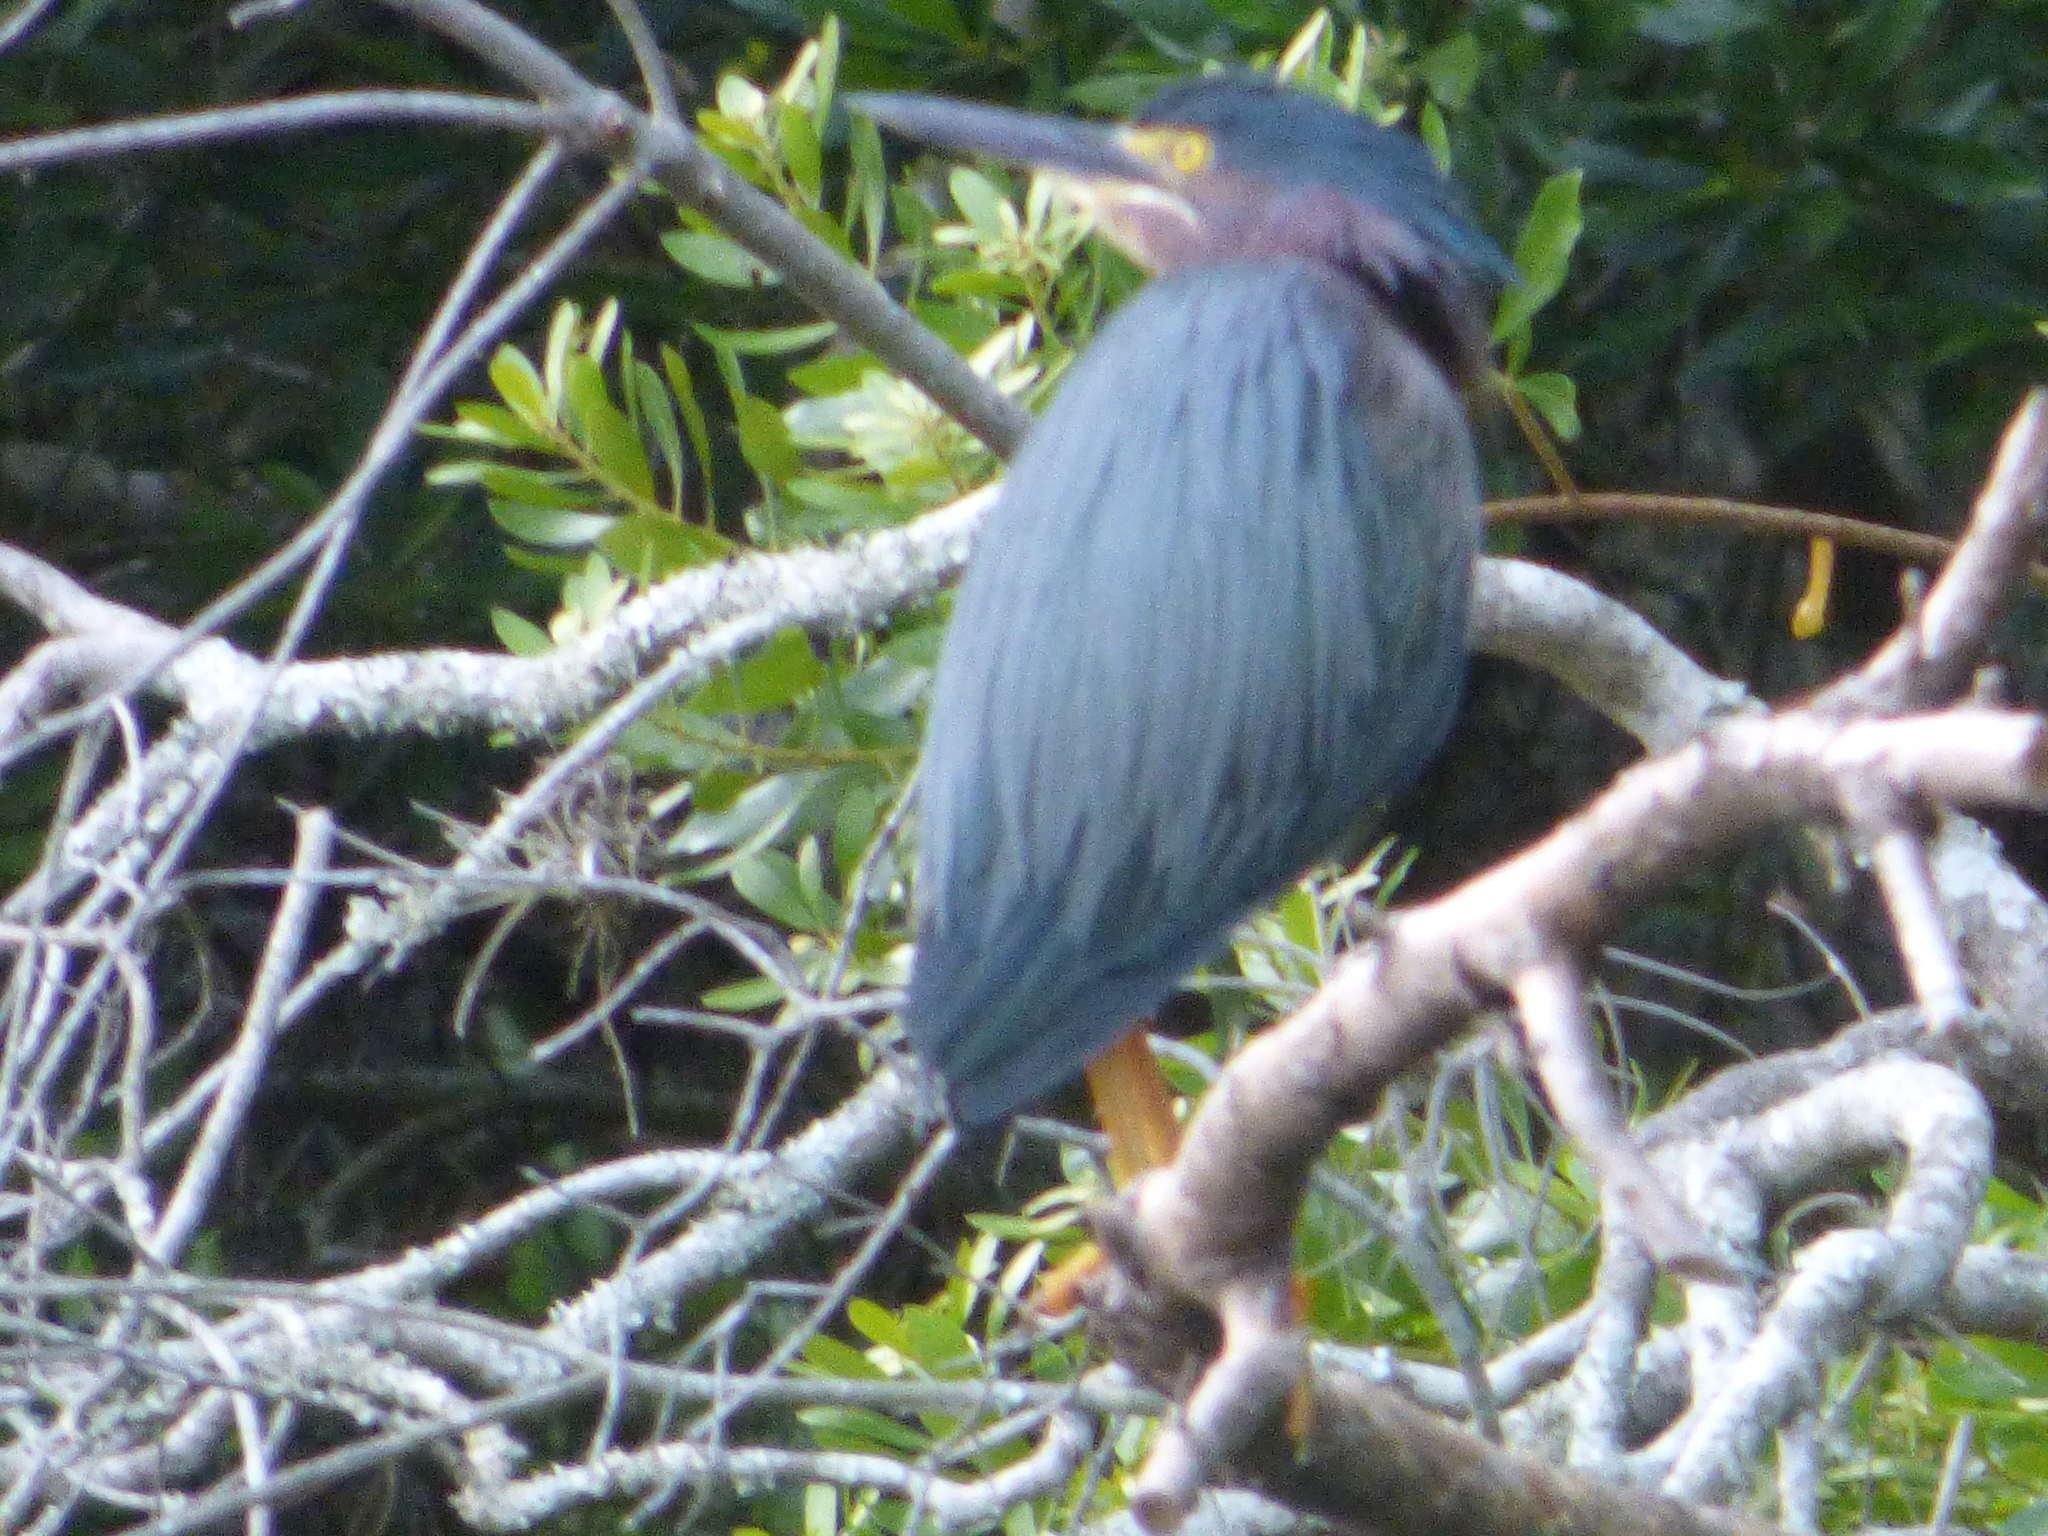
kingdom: Animalia
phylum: Chordata
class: Aves
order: Pelecaniformes
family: Ardeidae
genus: Butorides
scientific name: Butorides virescens
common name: Green heron
